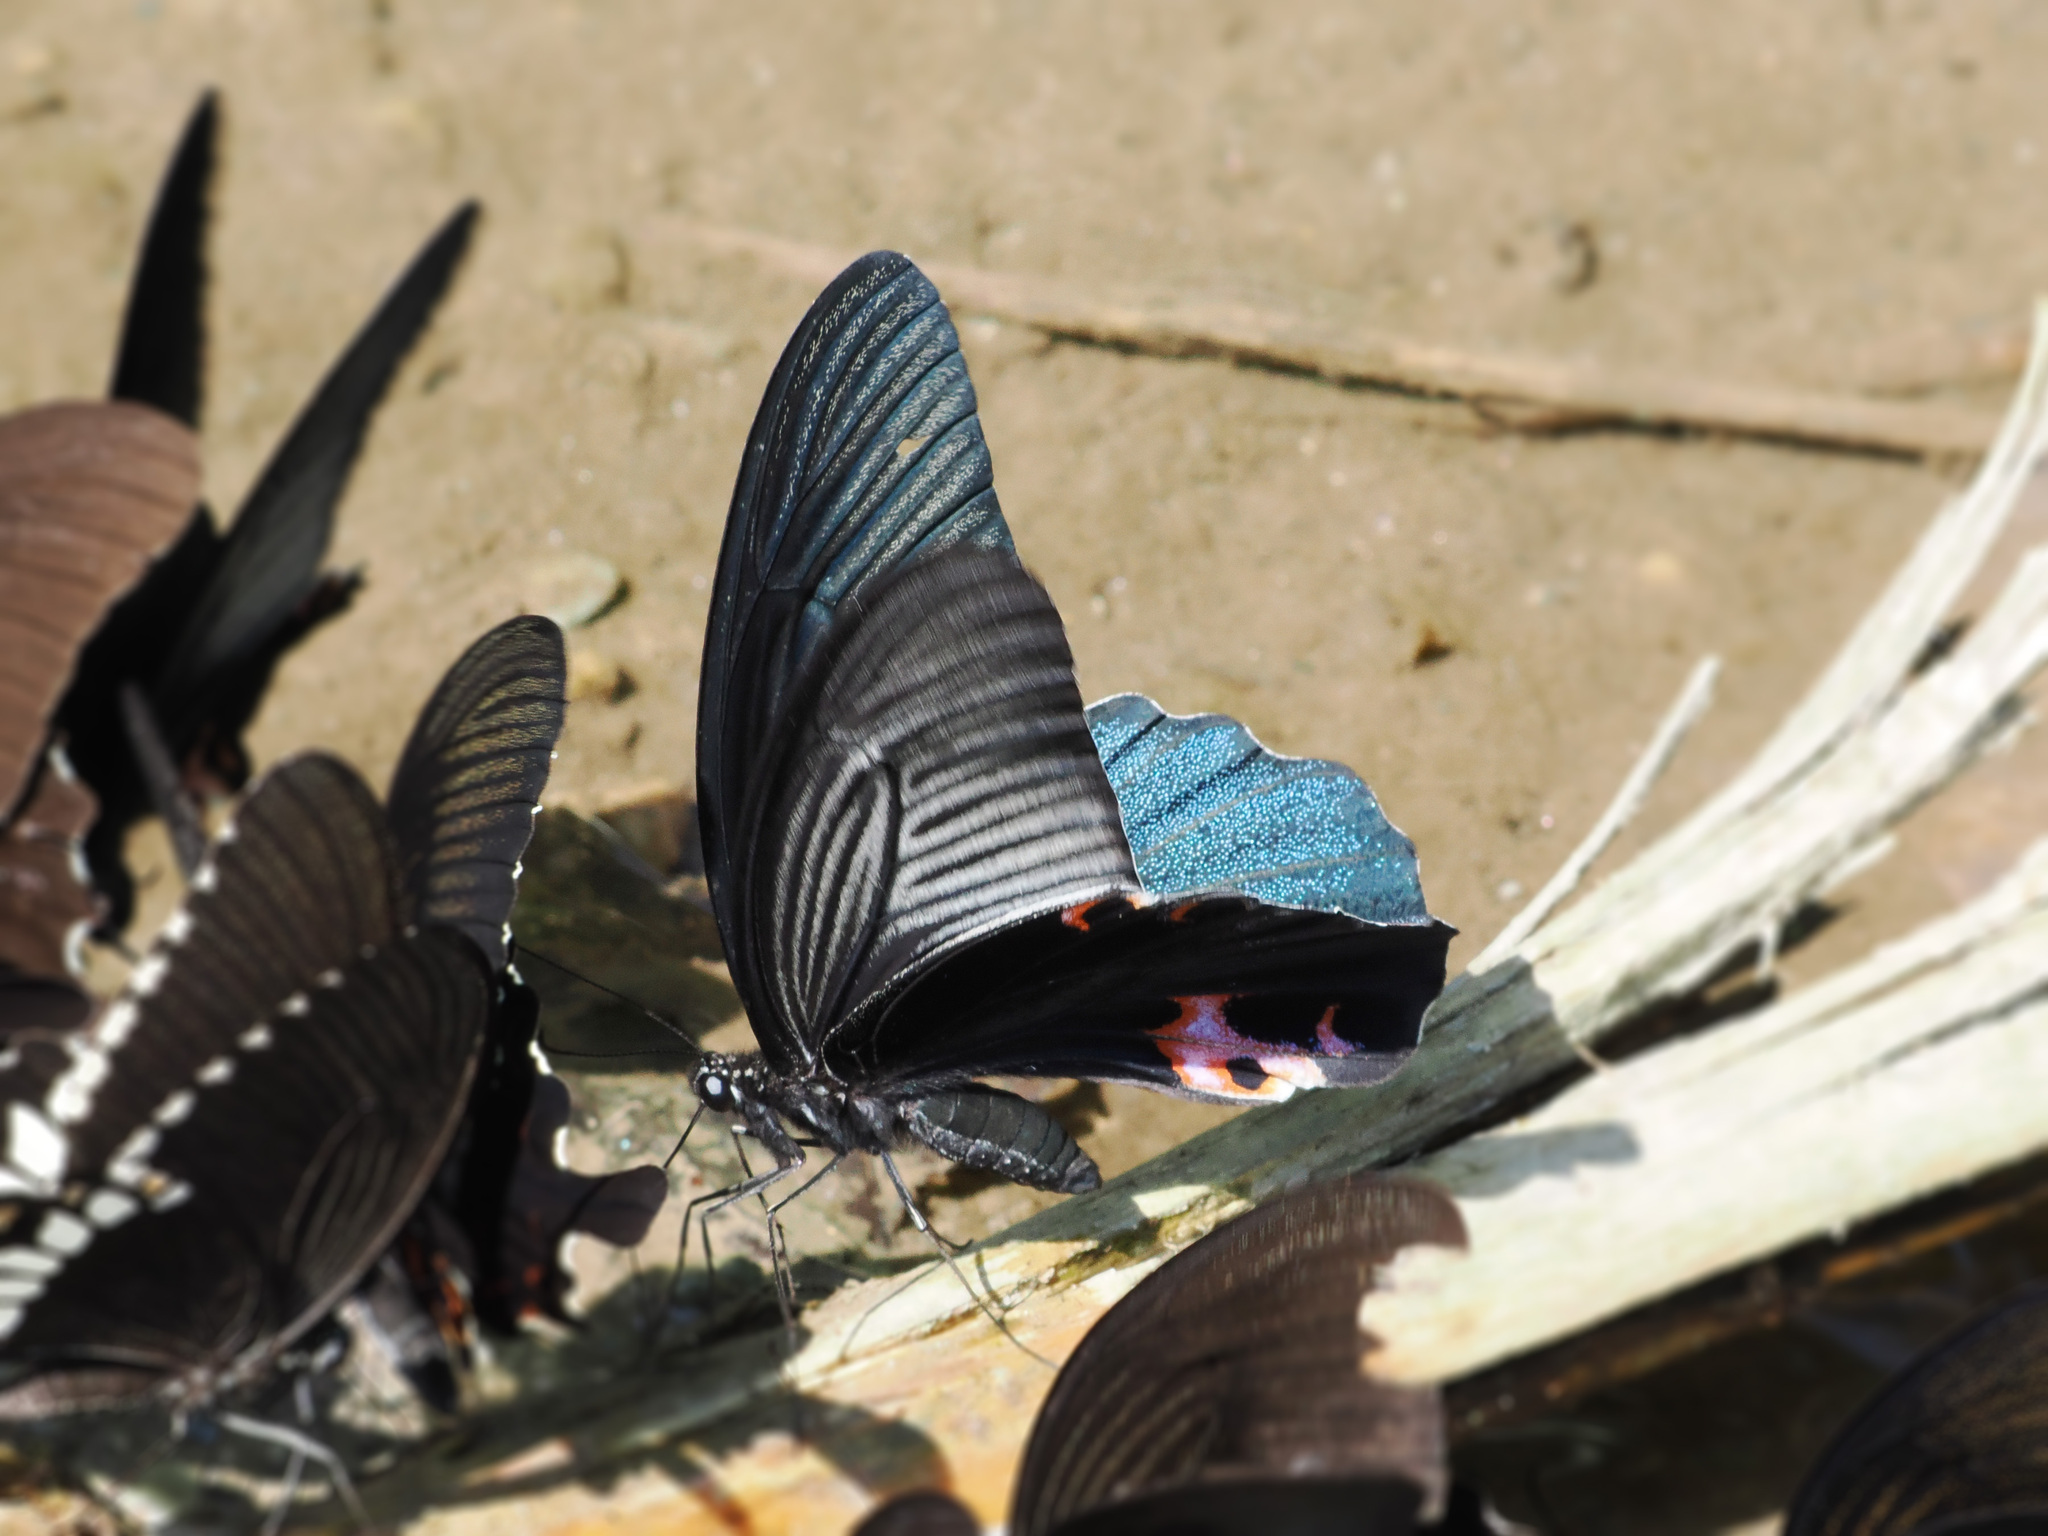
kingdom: Animalia
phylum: Arthropoda
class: Insecta
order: Lepidoptera
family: Papilionidae
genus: Papilio
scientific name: Papilio protenor
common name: Spangle
